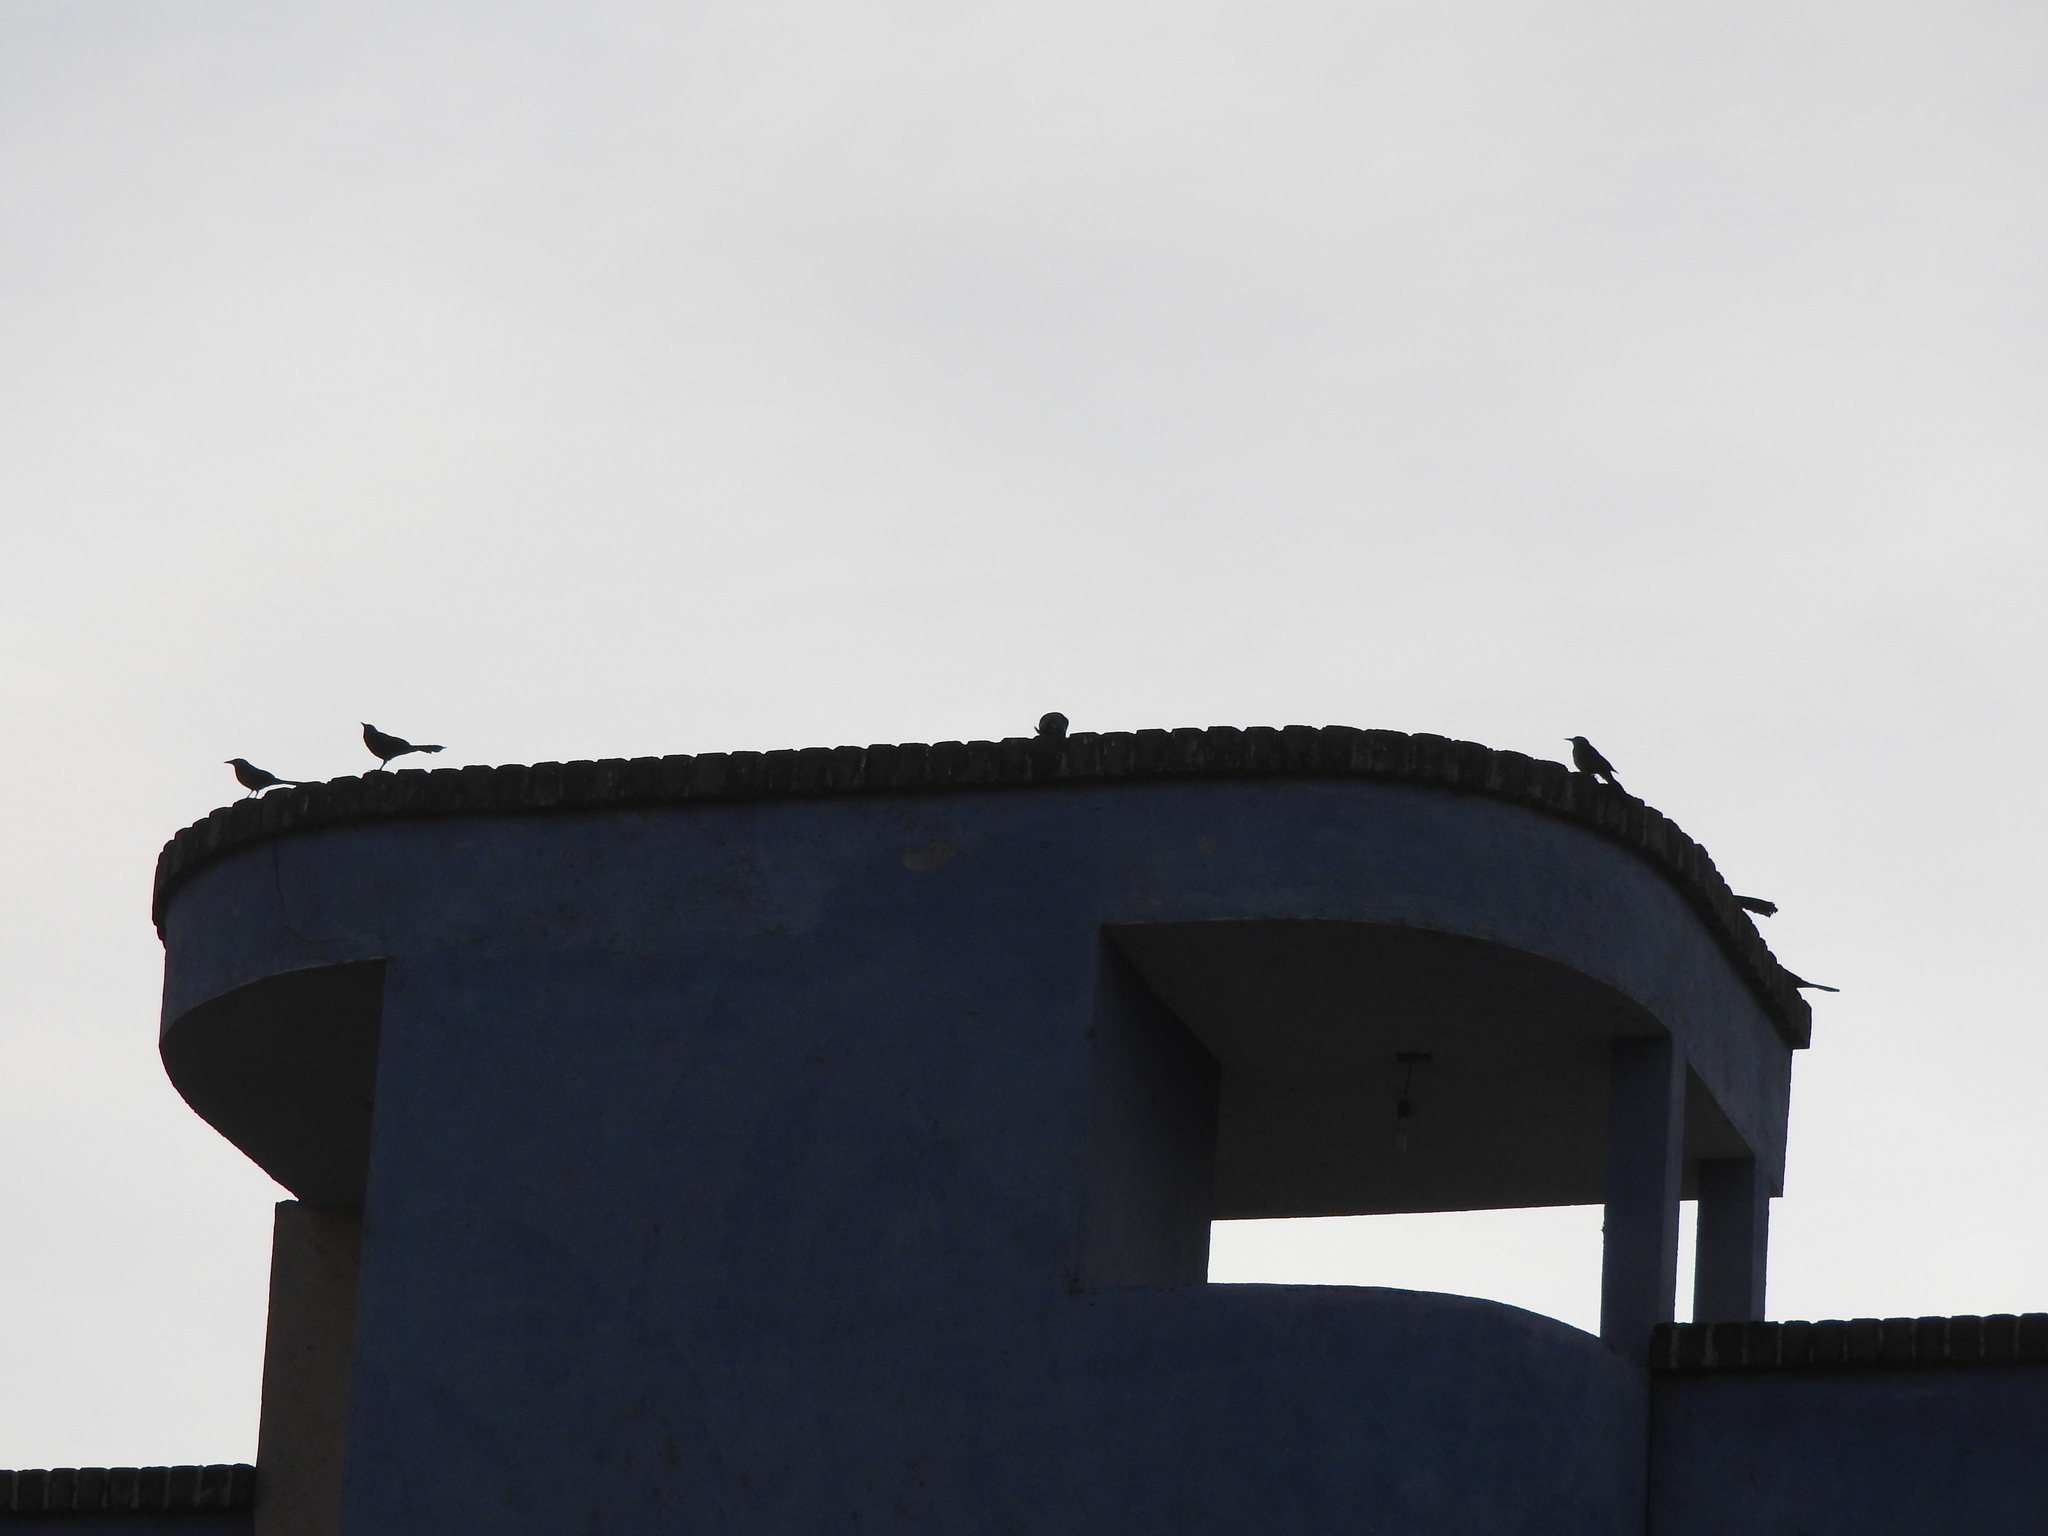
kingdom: Animalia
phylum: Chordata
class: Aves
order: Passeriformes
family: Icteridae
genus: Quiscalus
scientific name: Quiscalus mexicanus
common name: Great-tailed grackle
